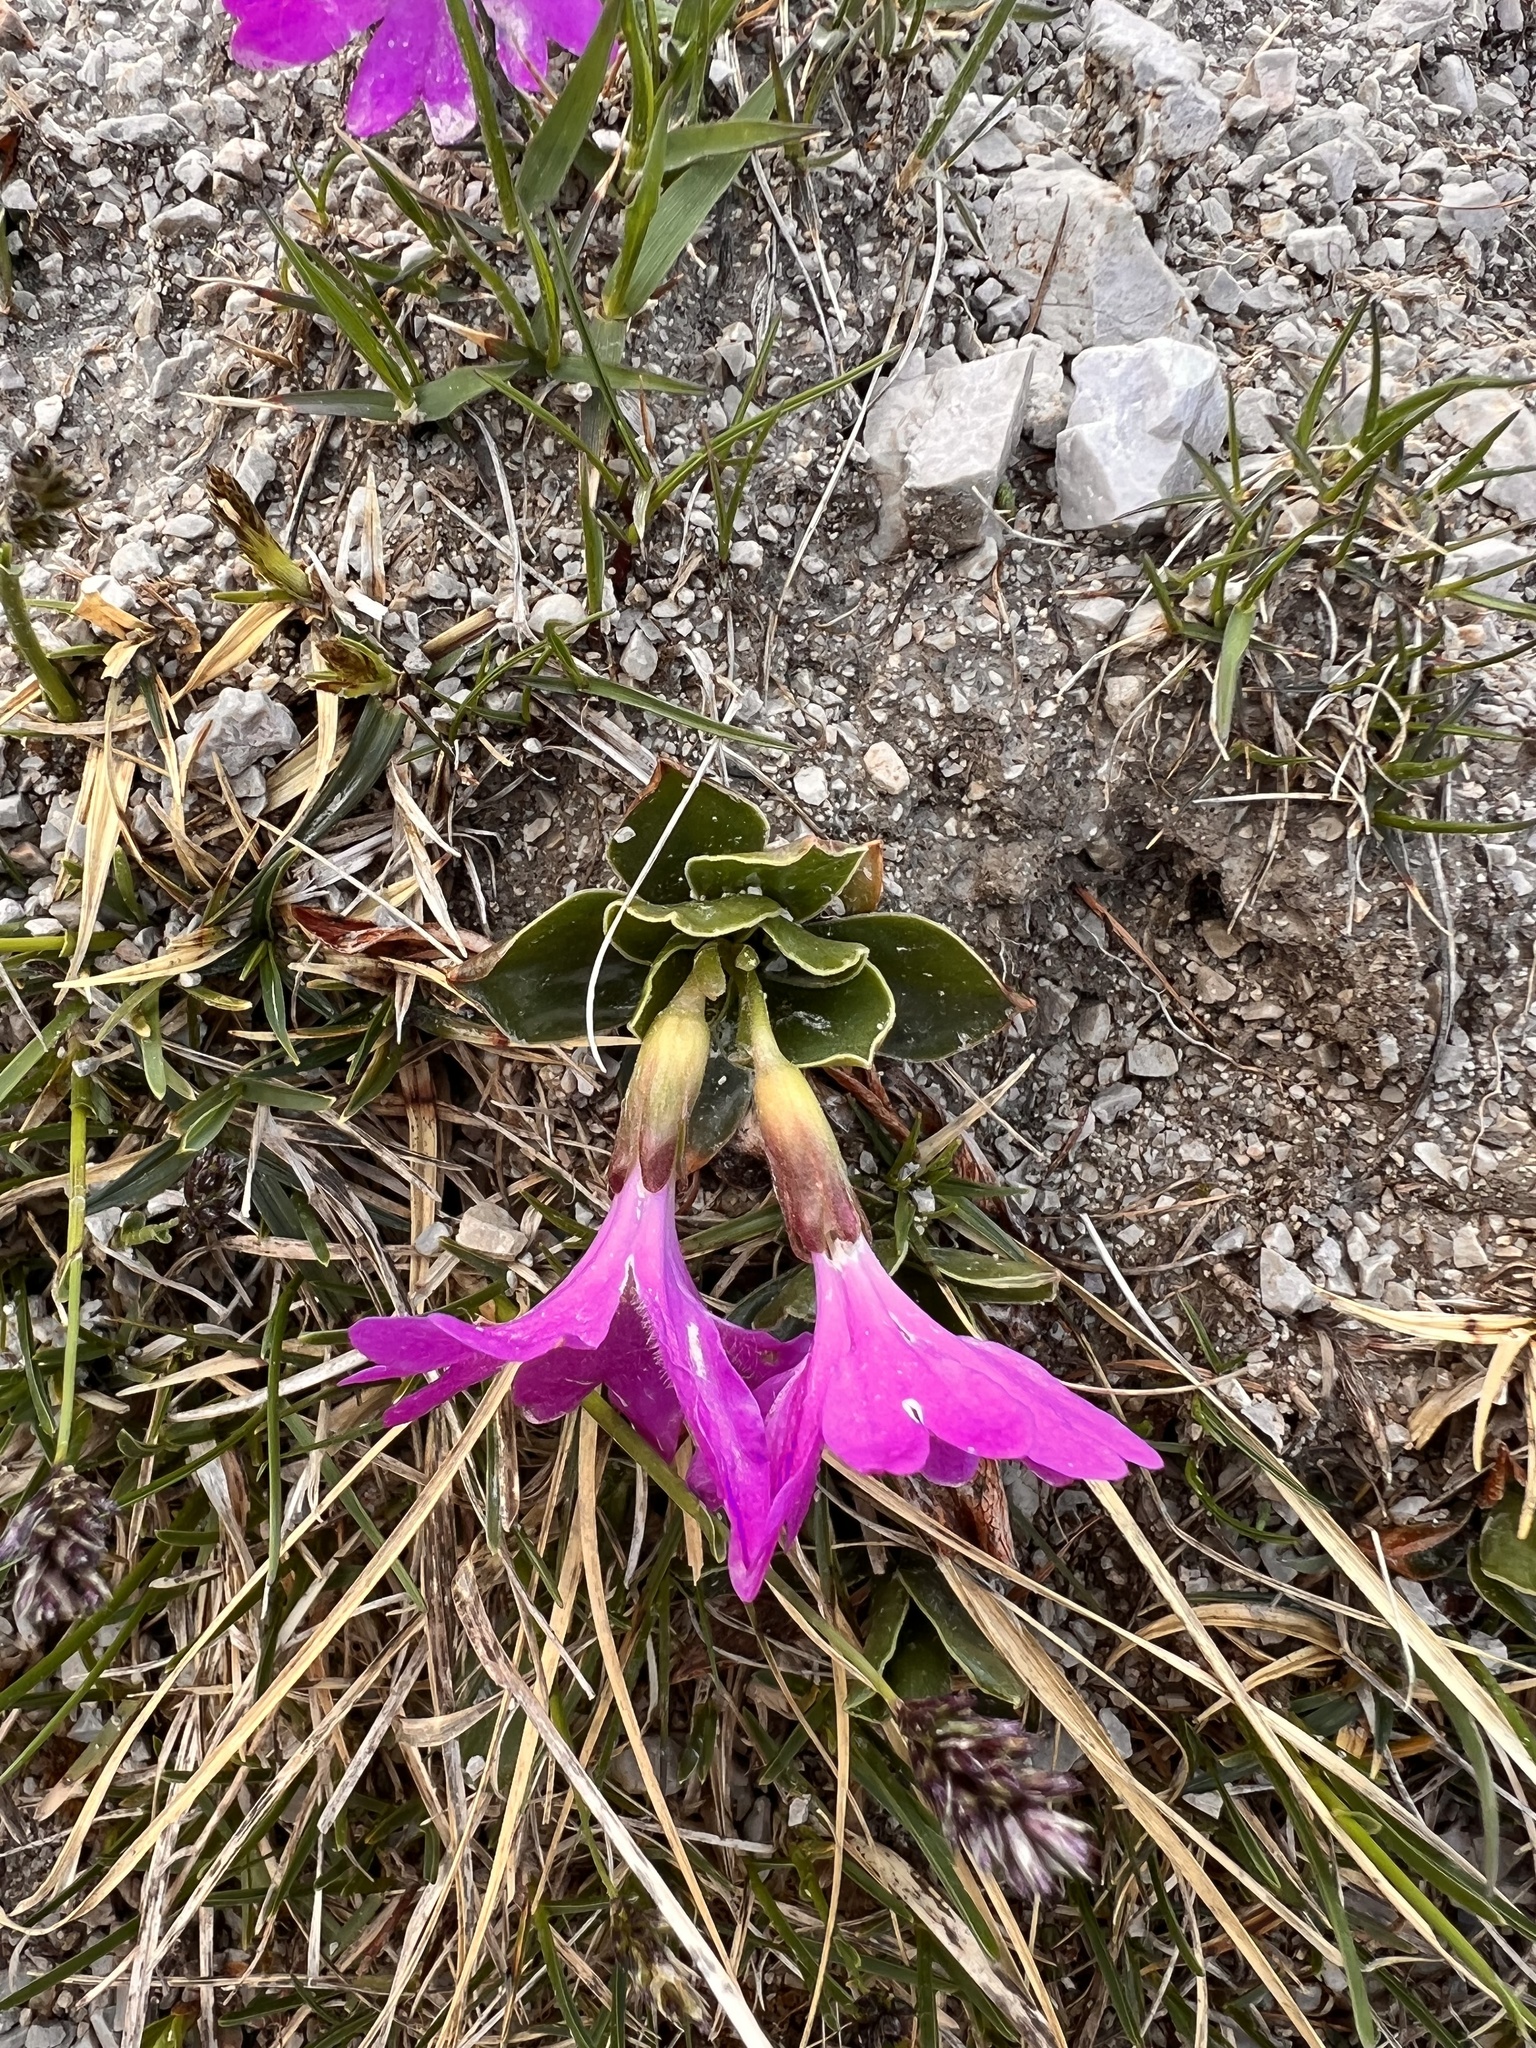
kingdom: Plantae
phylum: Tracheophyta
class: Magnoliopsida
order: Ericales
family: Primulaceae
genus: Primula
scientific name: Primula clusiana
